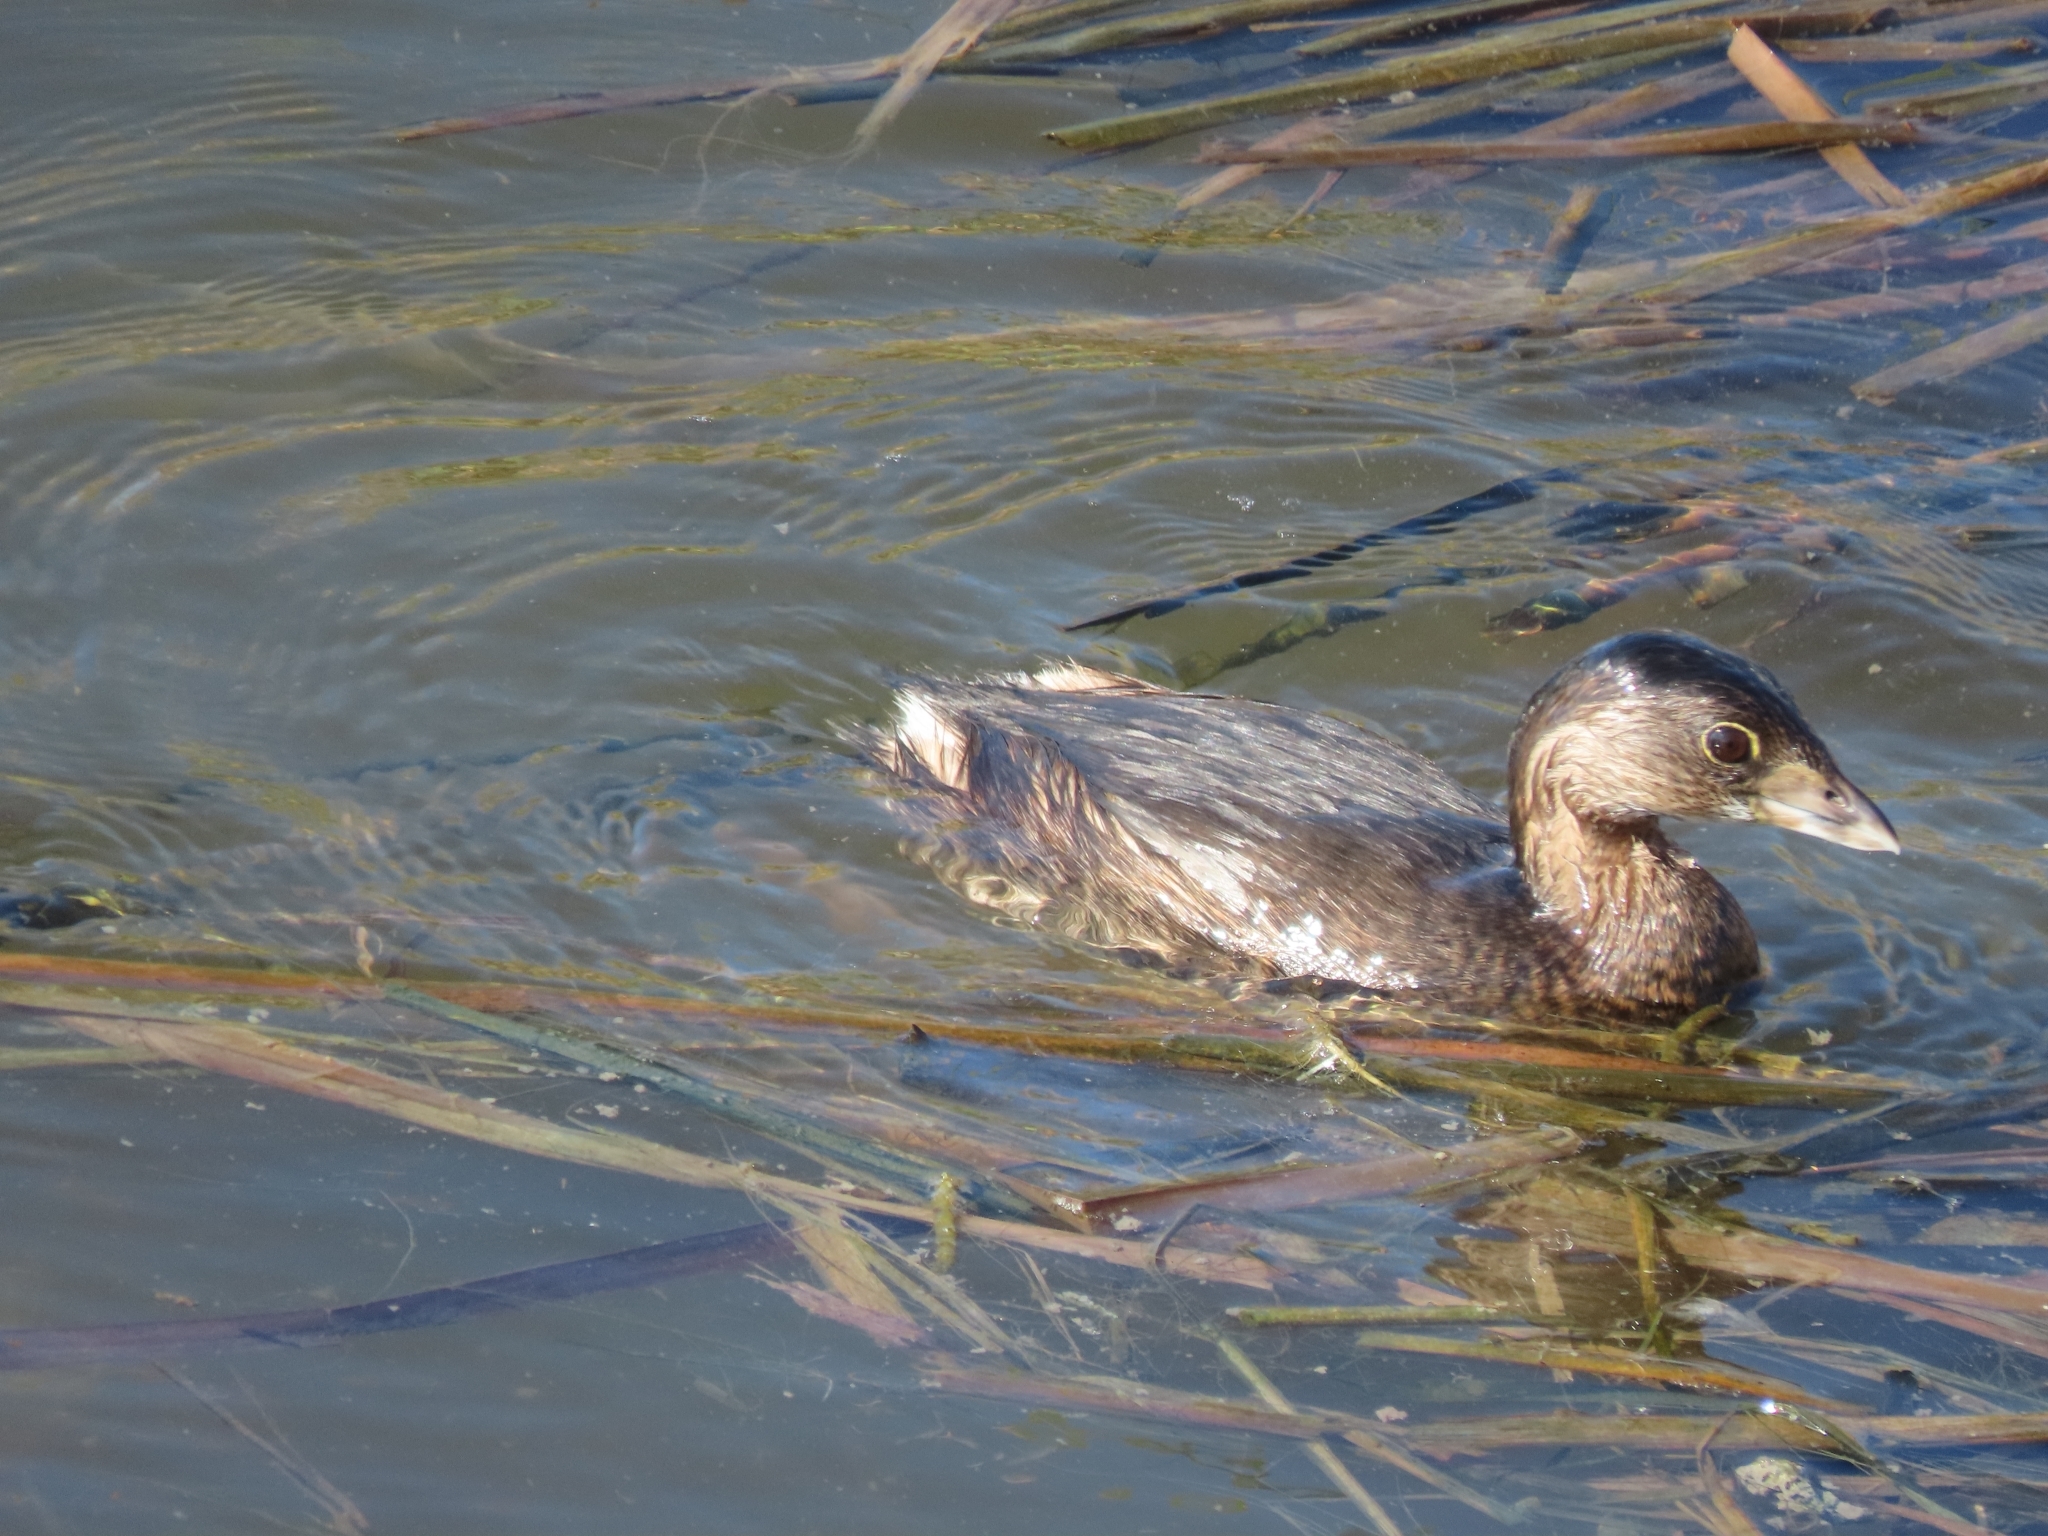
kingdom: Animalia
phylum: Chordata
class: Aves
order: Podicipediformes
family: Podicipedidae
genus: Podilymbus
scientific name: Podilymbus podiceps
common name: Pied-billed grebe
